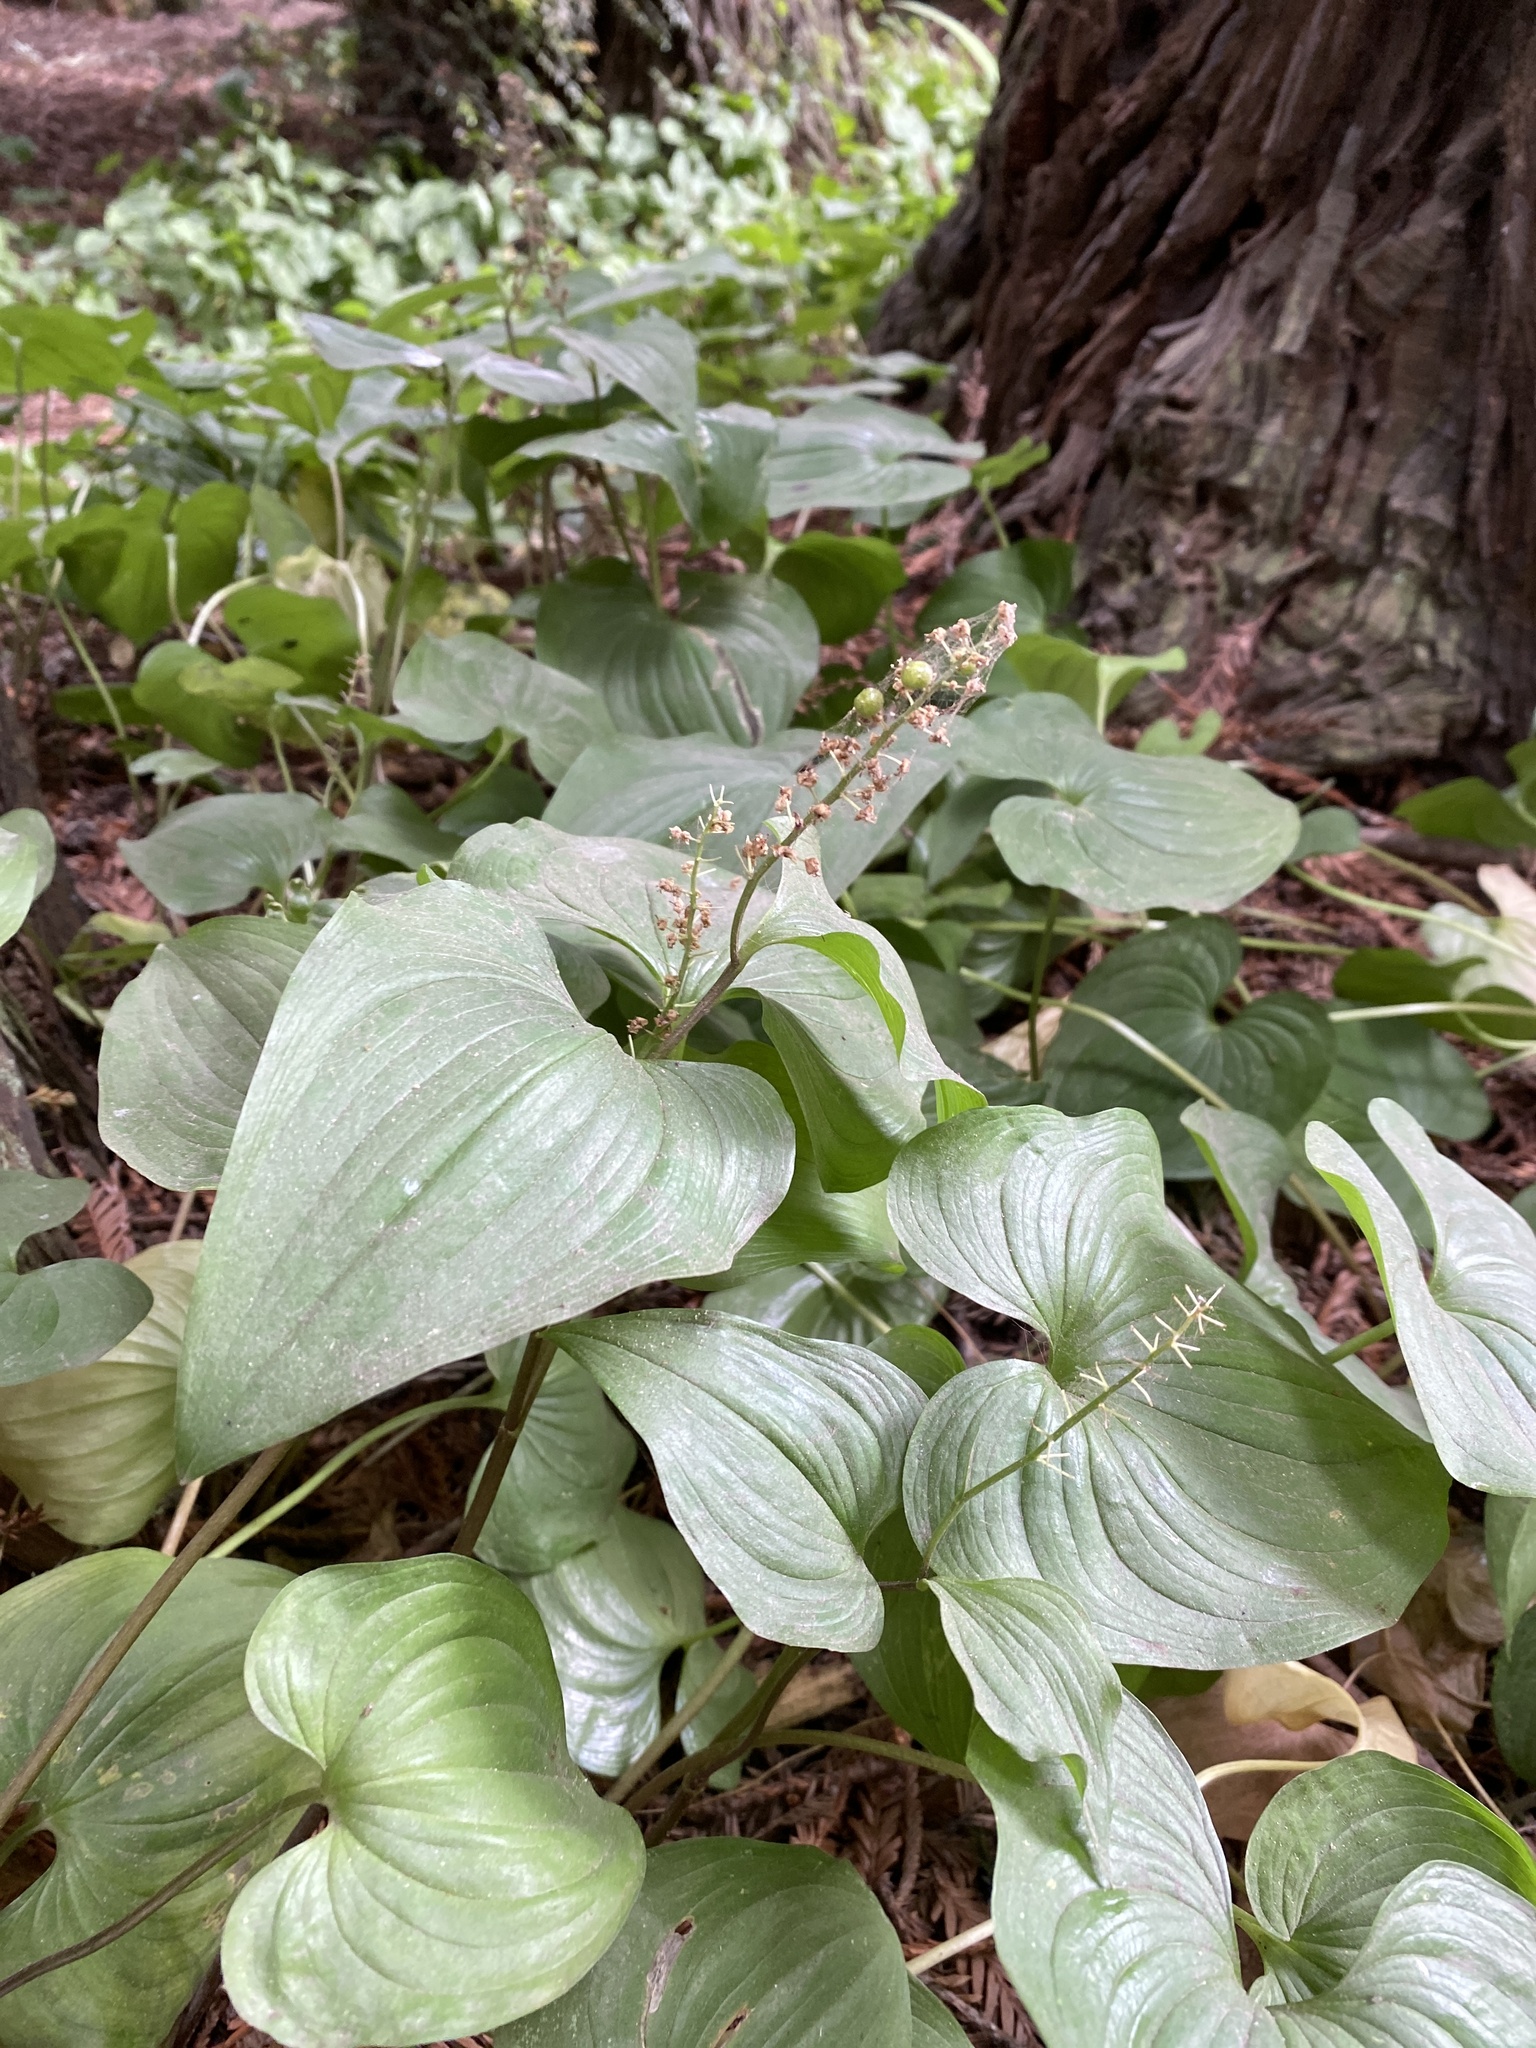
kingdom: Plantae
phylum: Tracheophyta
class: Liliopsida
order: Asparagales
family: Asparagaceae
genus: Maianthemum
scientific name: Maianthemum dilatatum
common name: False lily-of-the-valley
